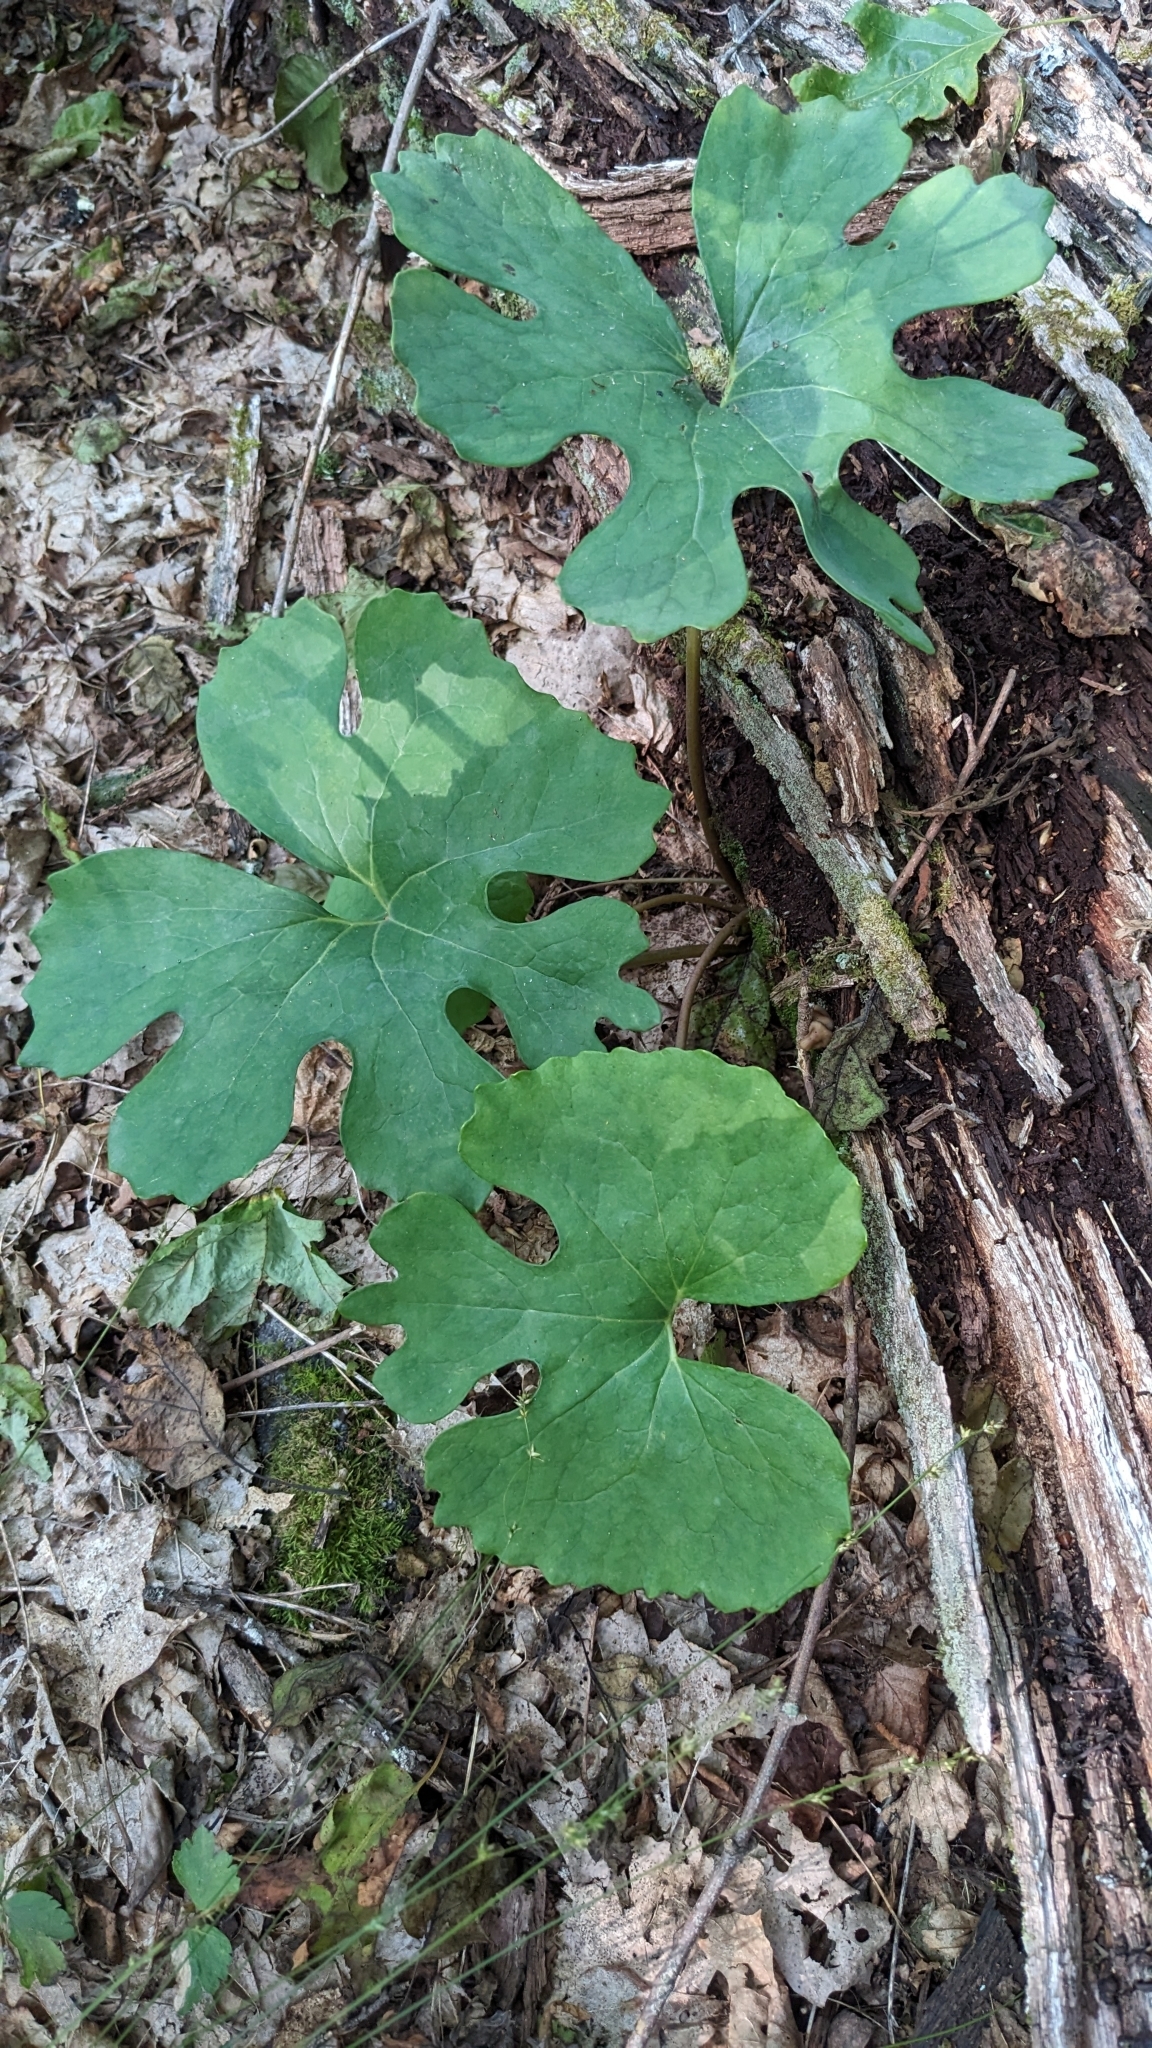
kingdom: Plantae
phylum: Tracheophyta
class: Magnoliopsida
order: Ranunculales
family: Papaveraceae
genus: Sanguinaria
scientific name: Sanguinaria canadensis
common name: Bloodroot
